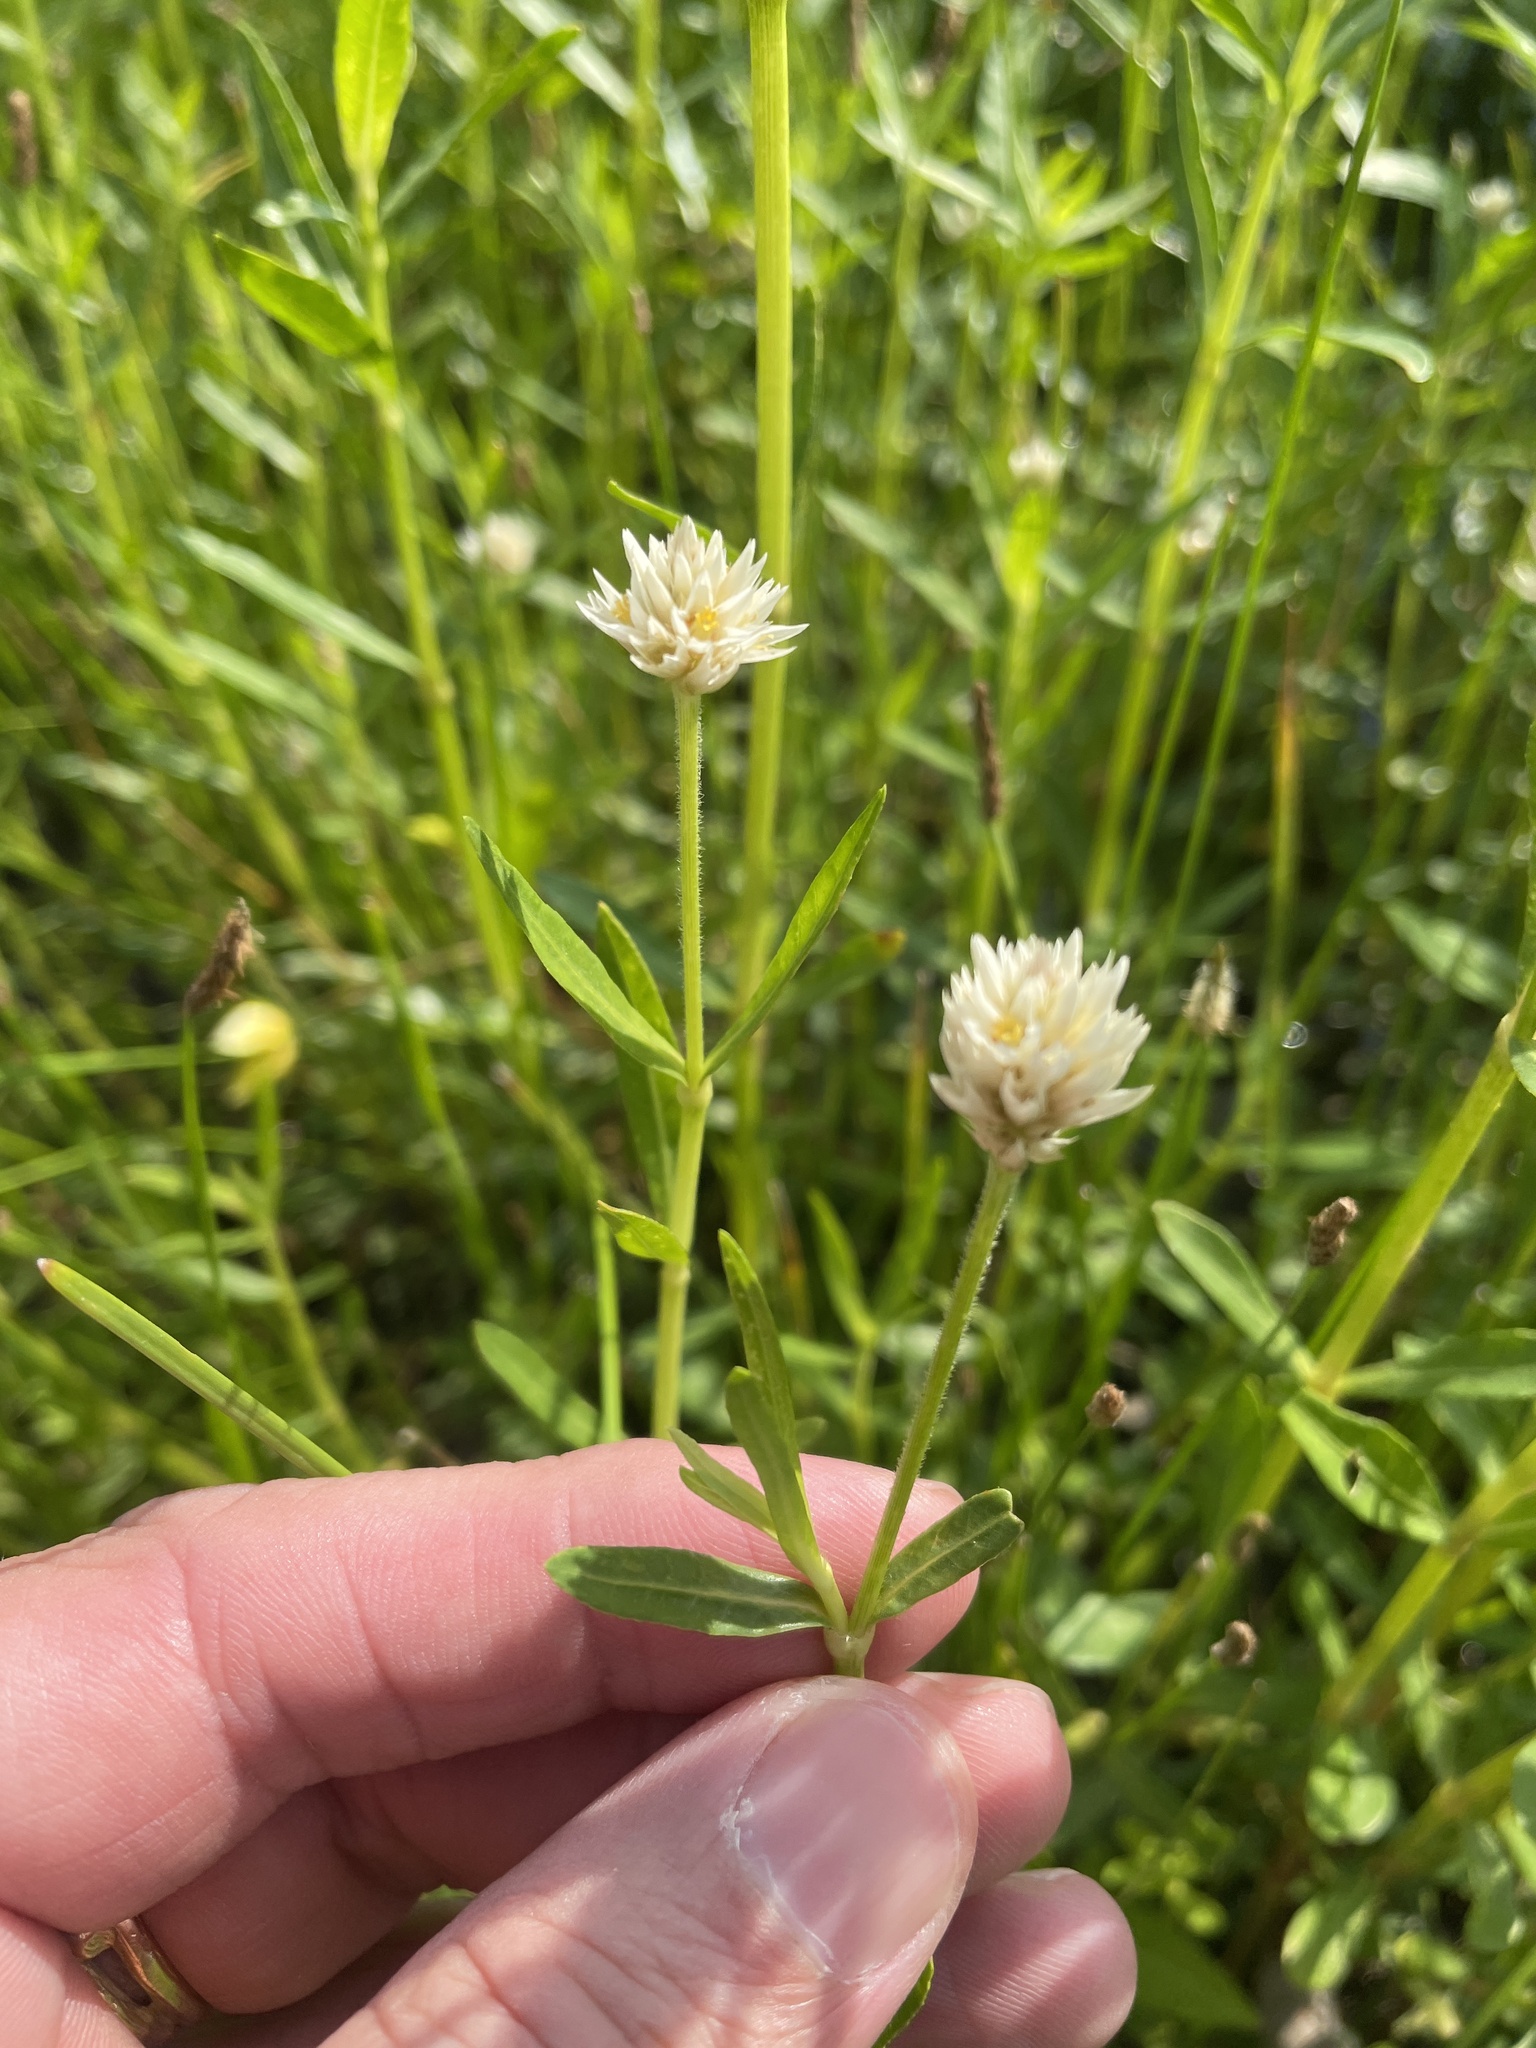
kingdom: Plantae
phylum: Tracheophyta
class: Magnoliopsida
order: Caryophyllales
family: Amaranthaceae
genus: Alternanthera
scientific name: Alternanthera philoxeroides
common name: Alligatorweed
